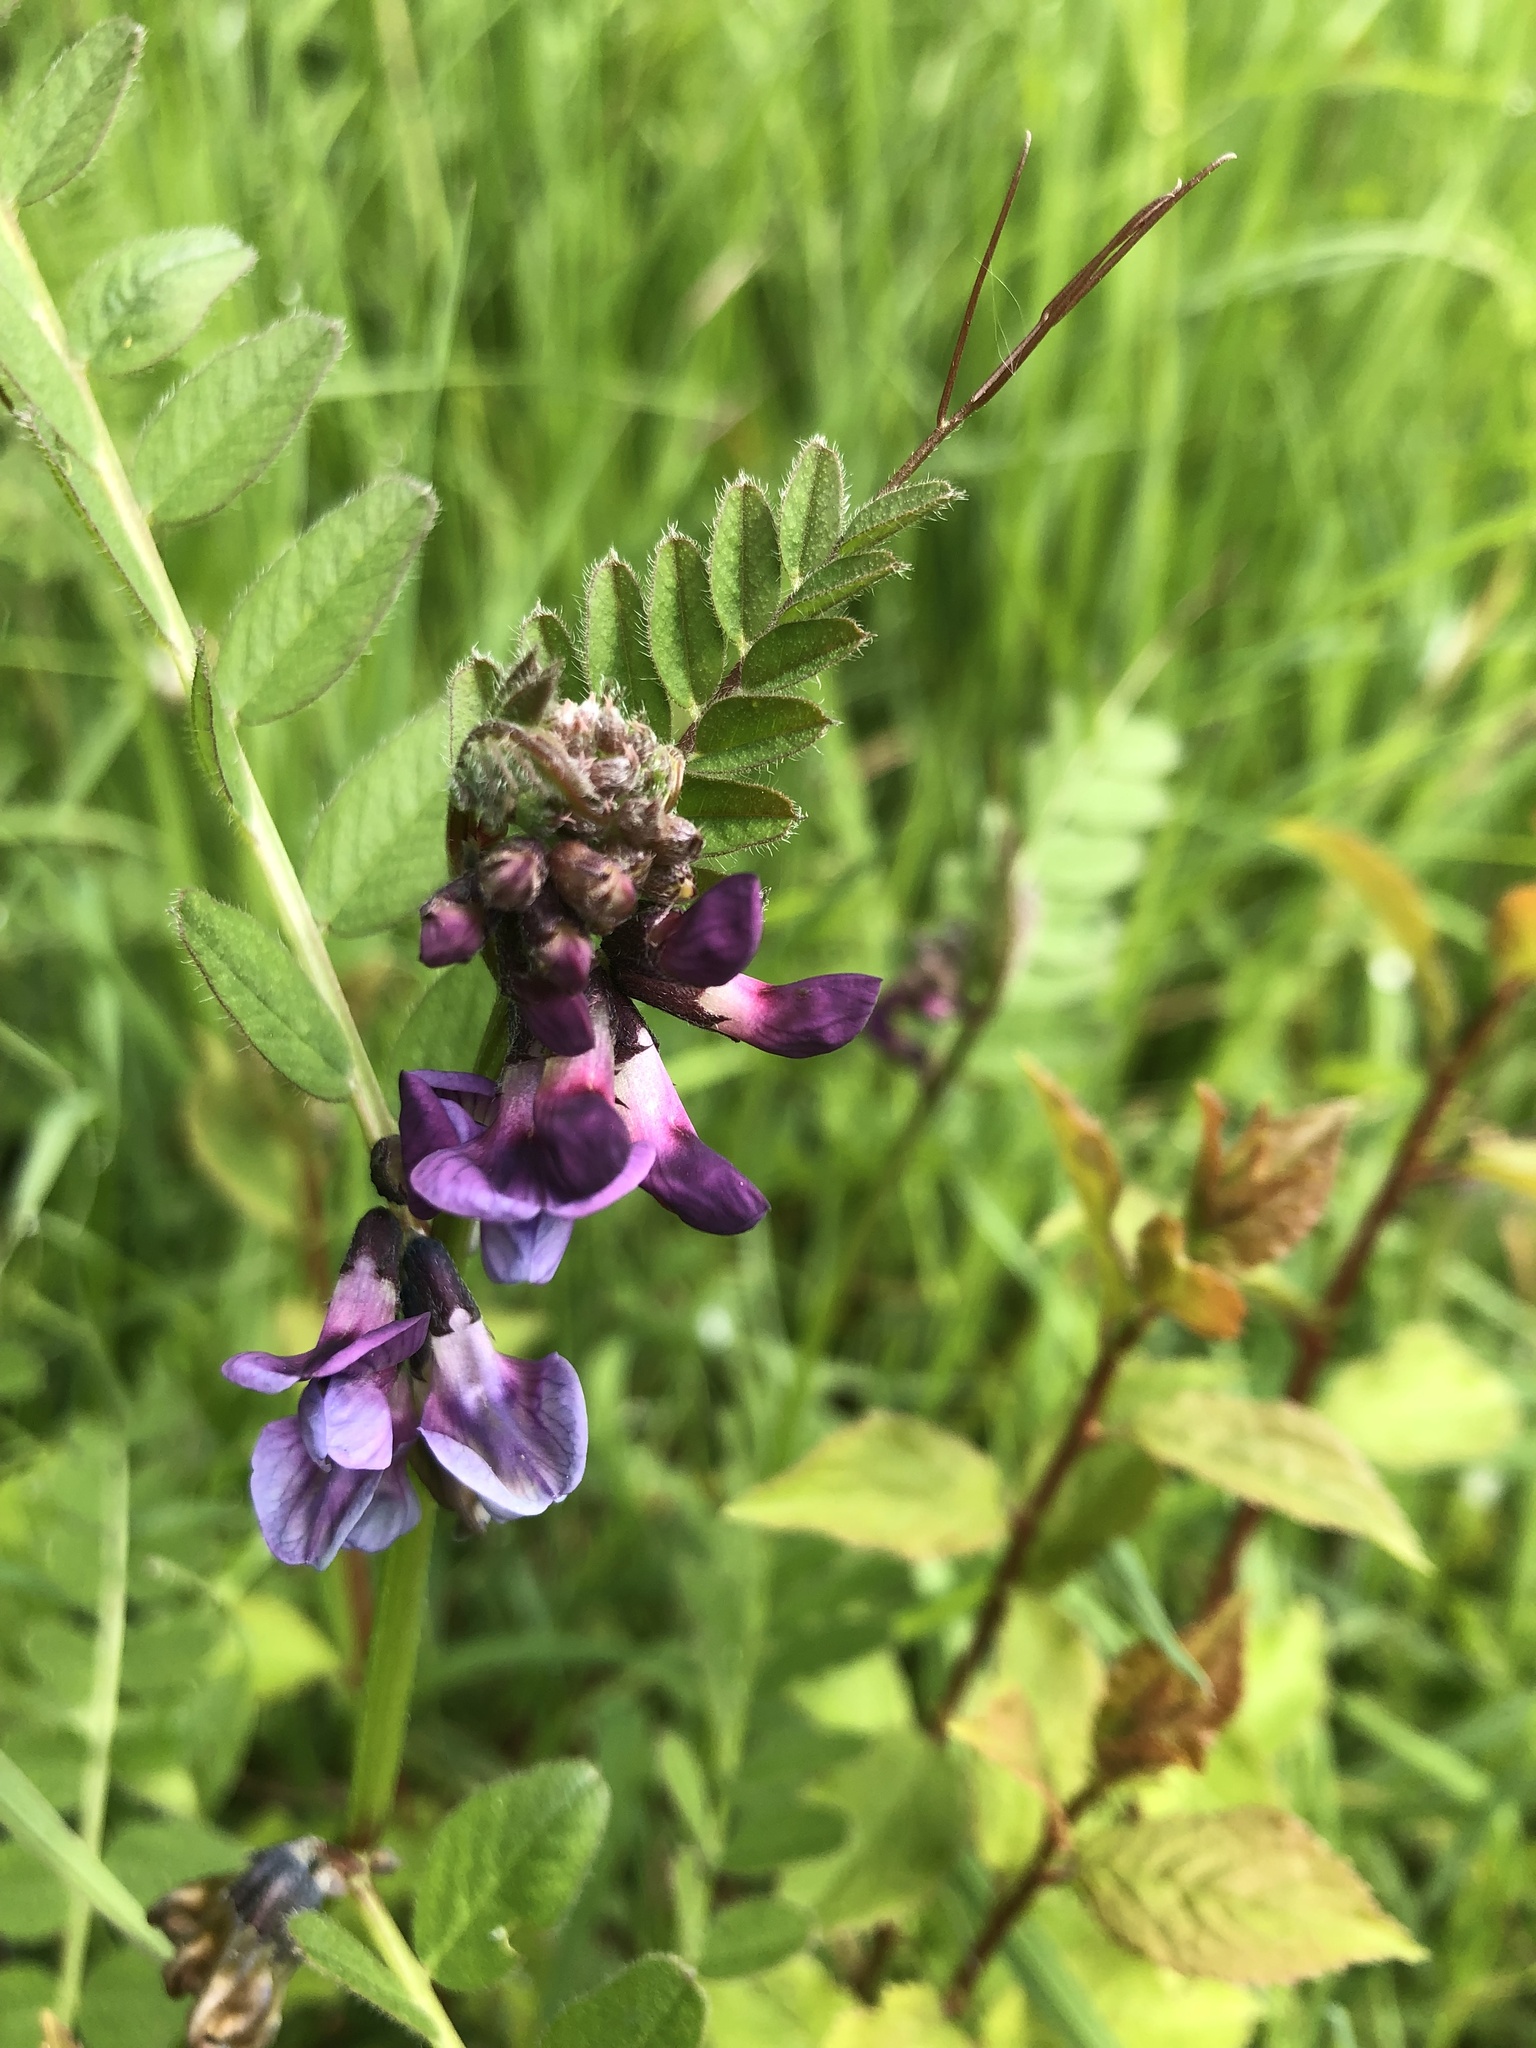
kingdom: Plantae
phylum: Tracheophyta
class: Magnoliopsida
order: Fabales
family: Fabaceae
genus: Vicia
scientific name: Vicia sepium
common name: Bush vetch
